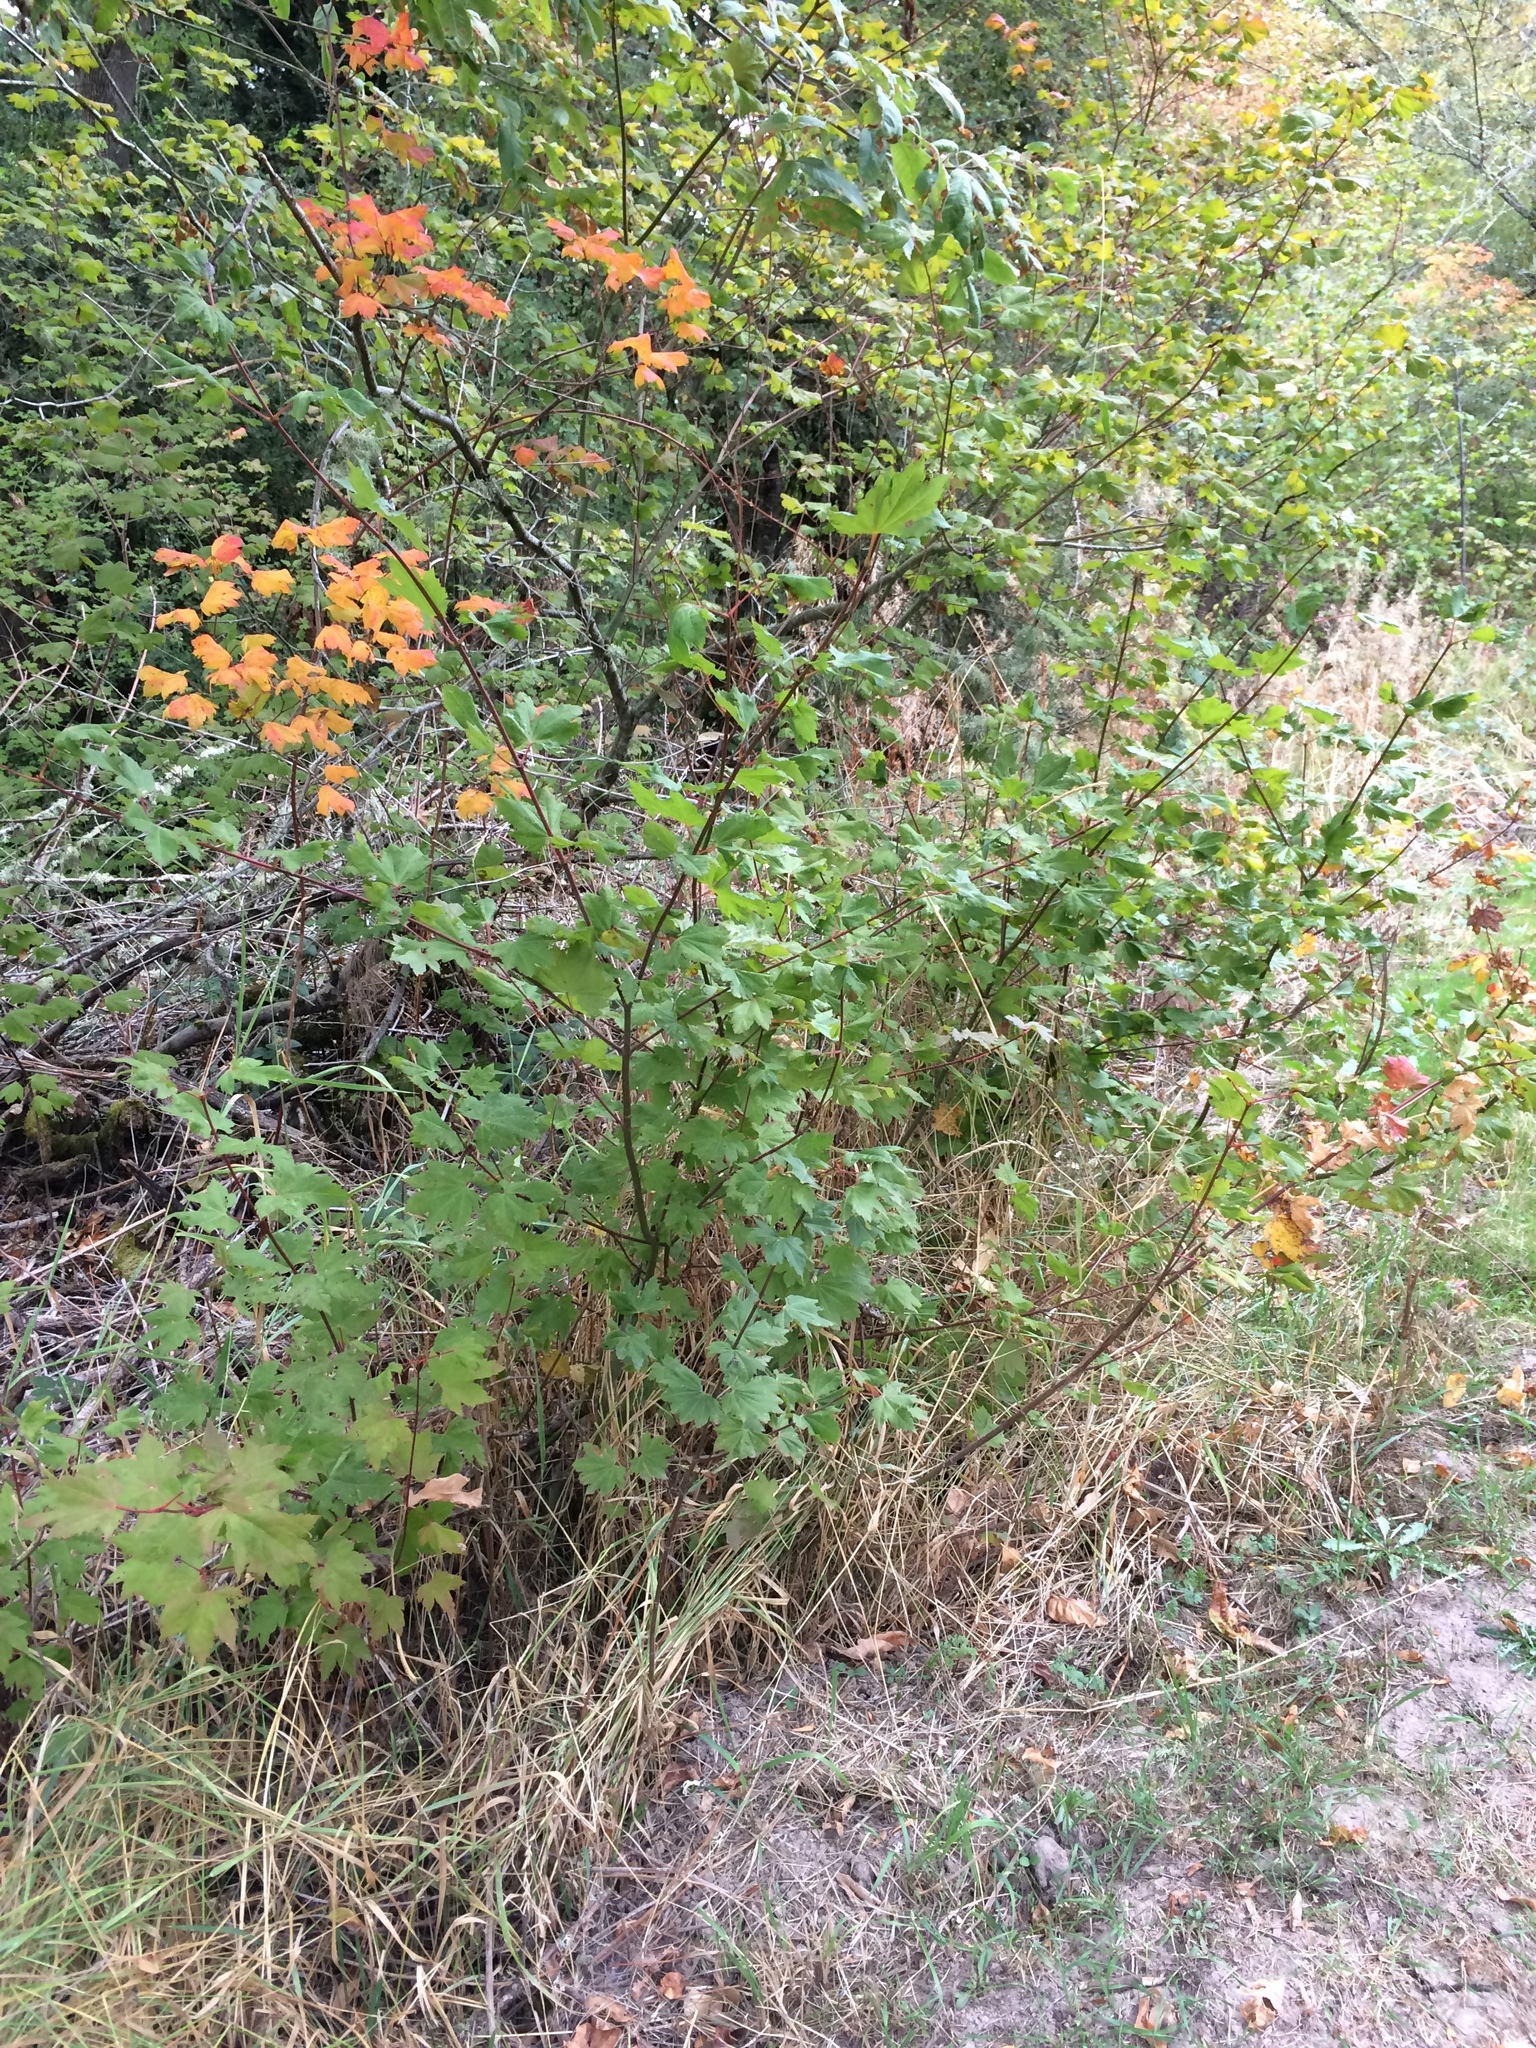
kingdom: Plantae
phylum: Tracheophyta
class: Magnoliopsida
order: Sapindales
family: Sapindaceae
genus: Acer
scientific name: Acer circinatum
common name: Vine maple
